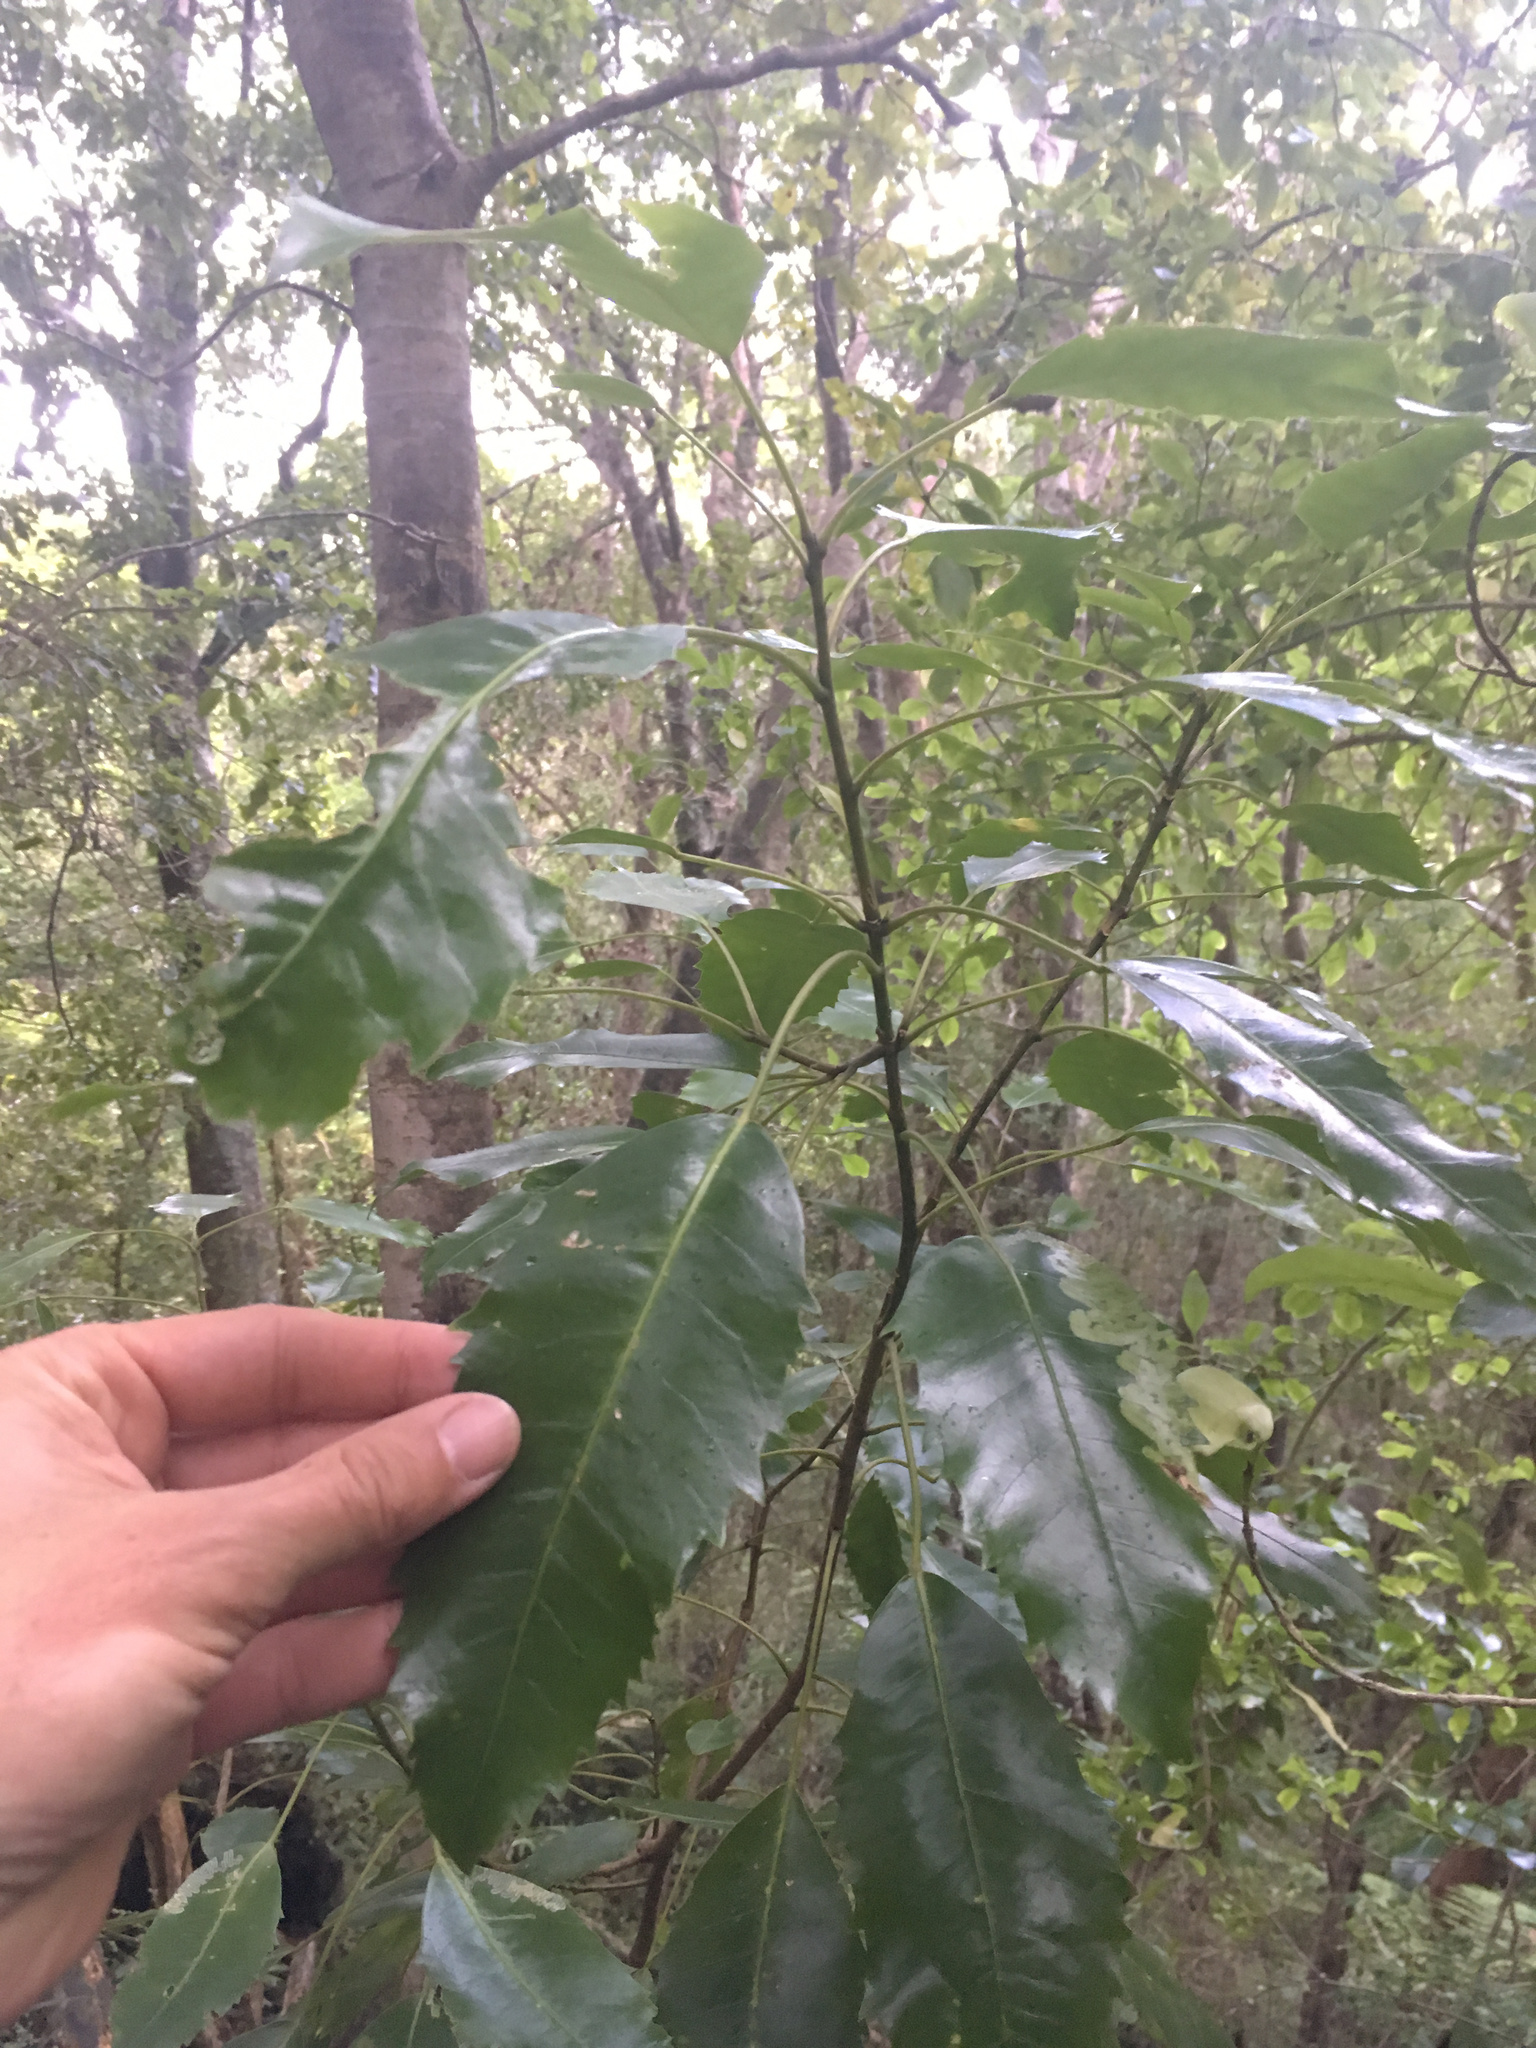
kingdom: Plantae
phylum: Tracheophyta
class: Magnoliopsida
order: Apiales
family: Araliaceae
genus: Raukaua
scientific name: Raukaua simplex
